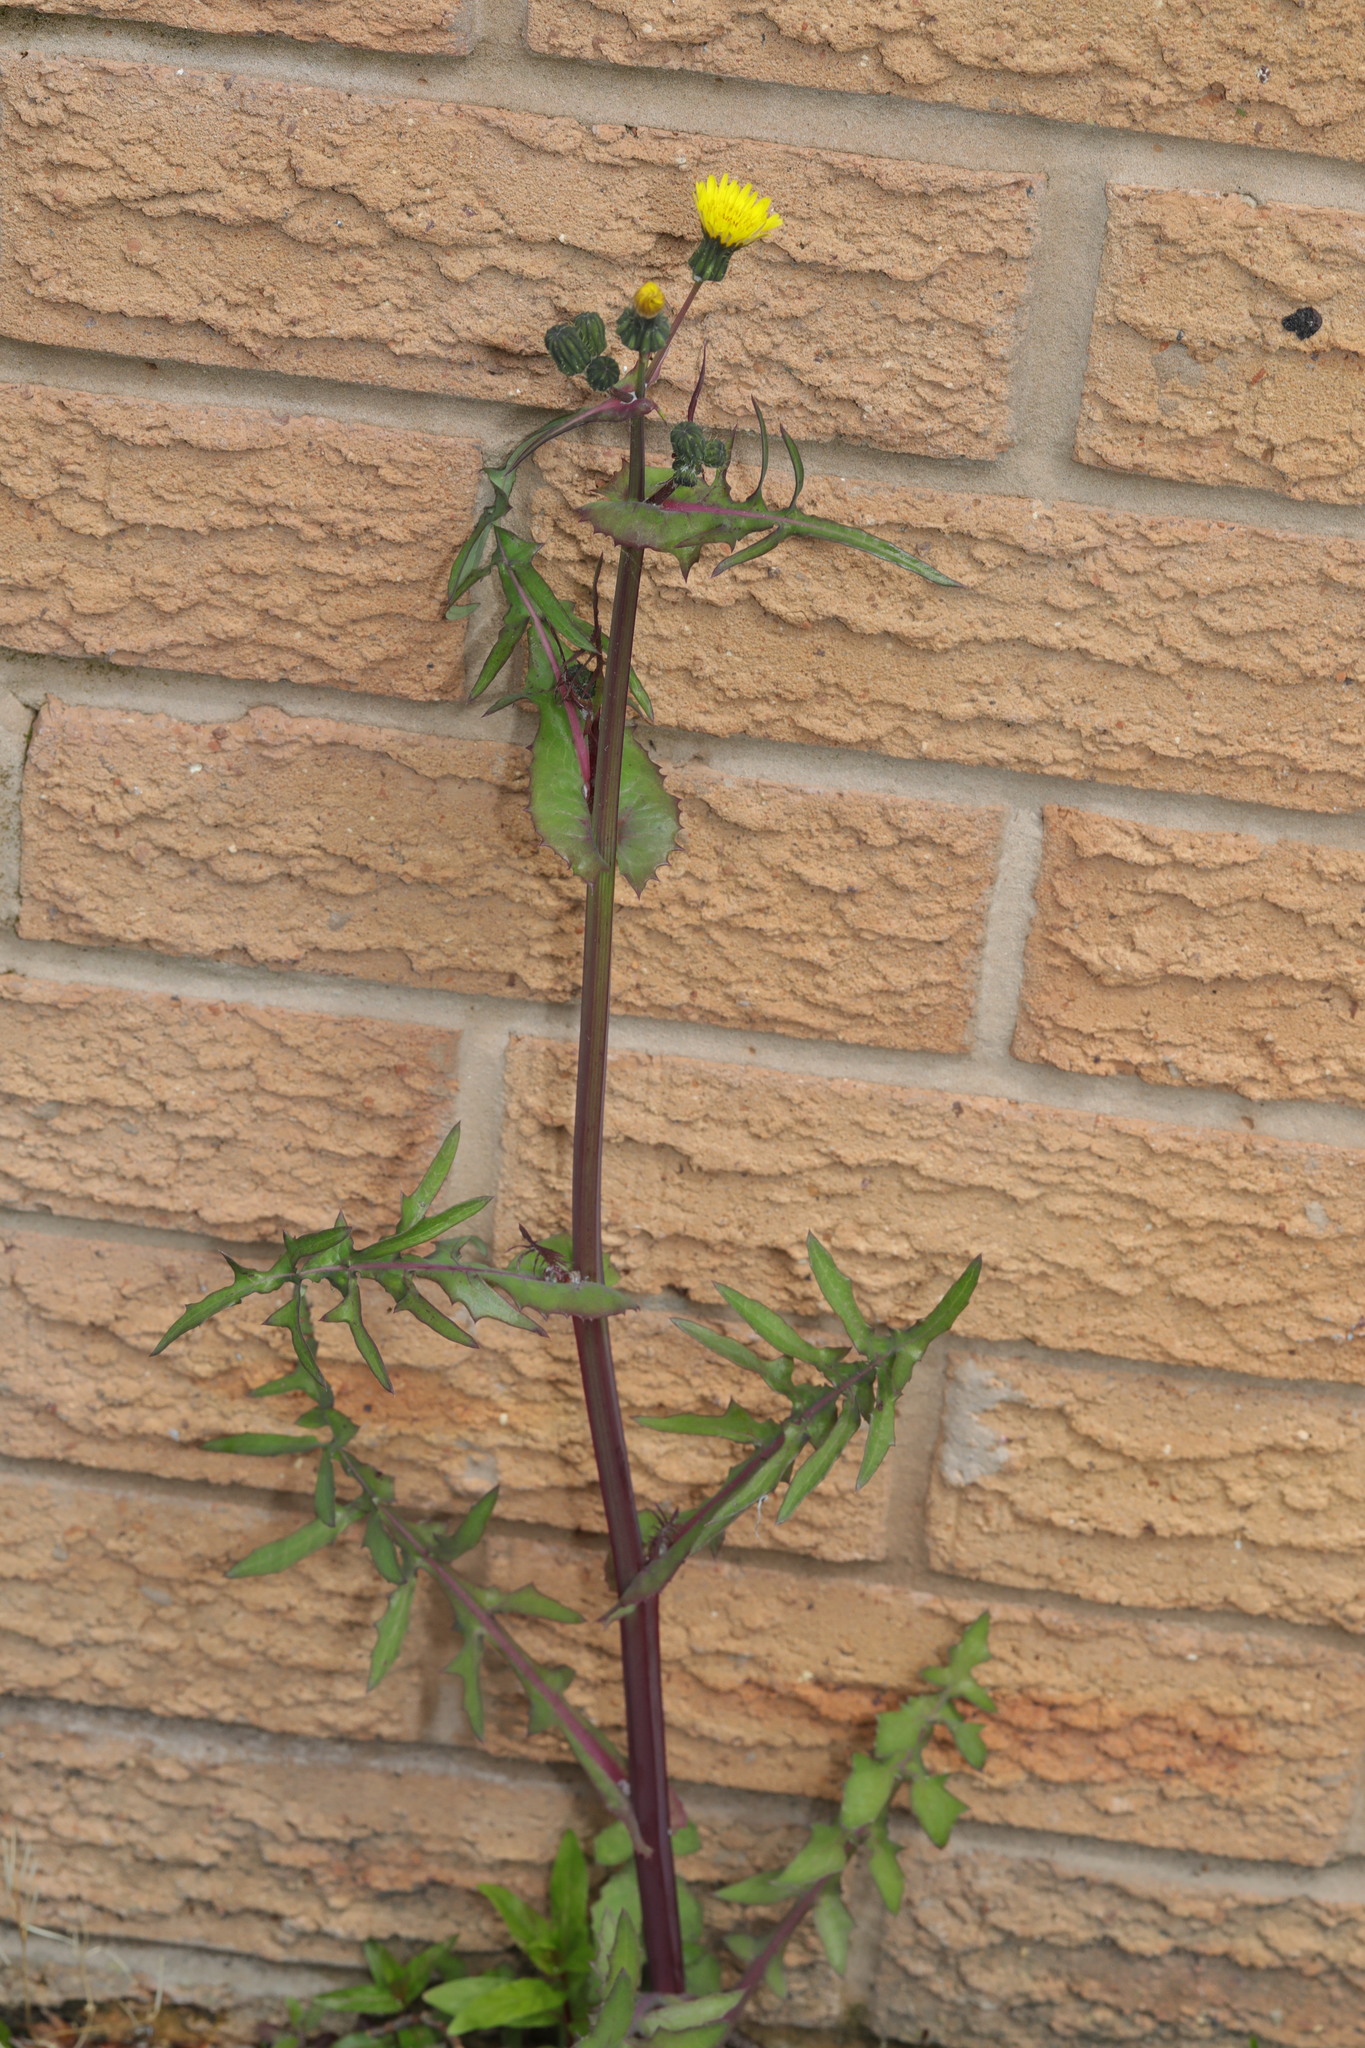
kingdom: Plantae
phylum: Tracheophyta
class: Magnoliopsida
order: Asterales
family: Asteraceae
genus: Sonchus
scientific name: Sonchus oleraceus
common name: Common sowthistle
